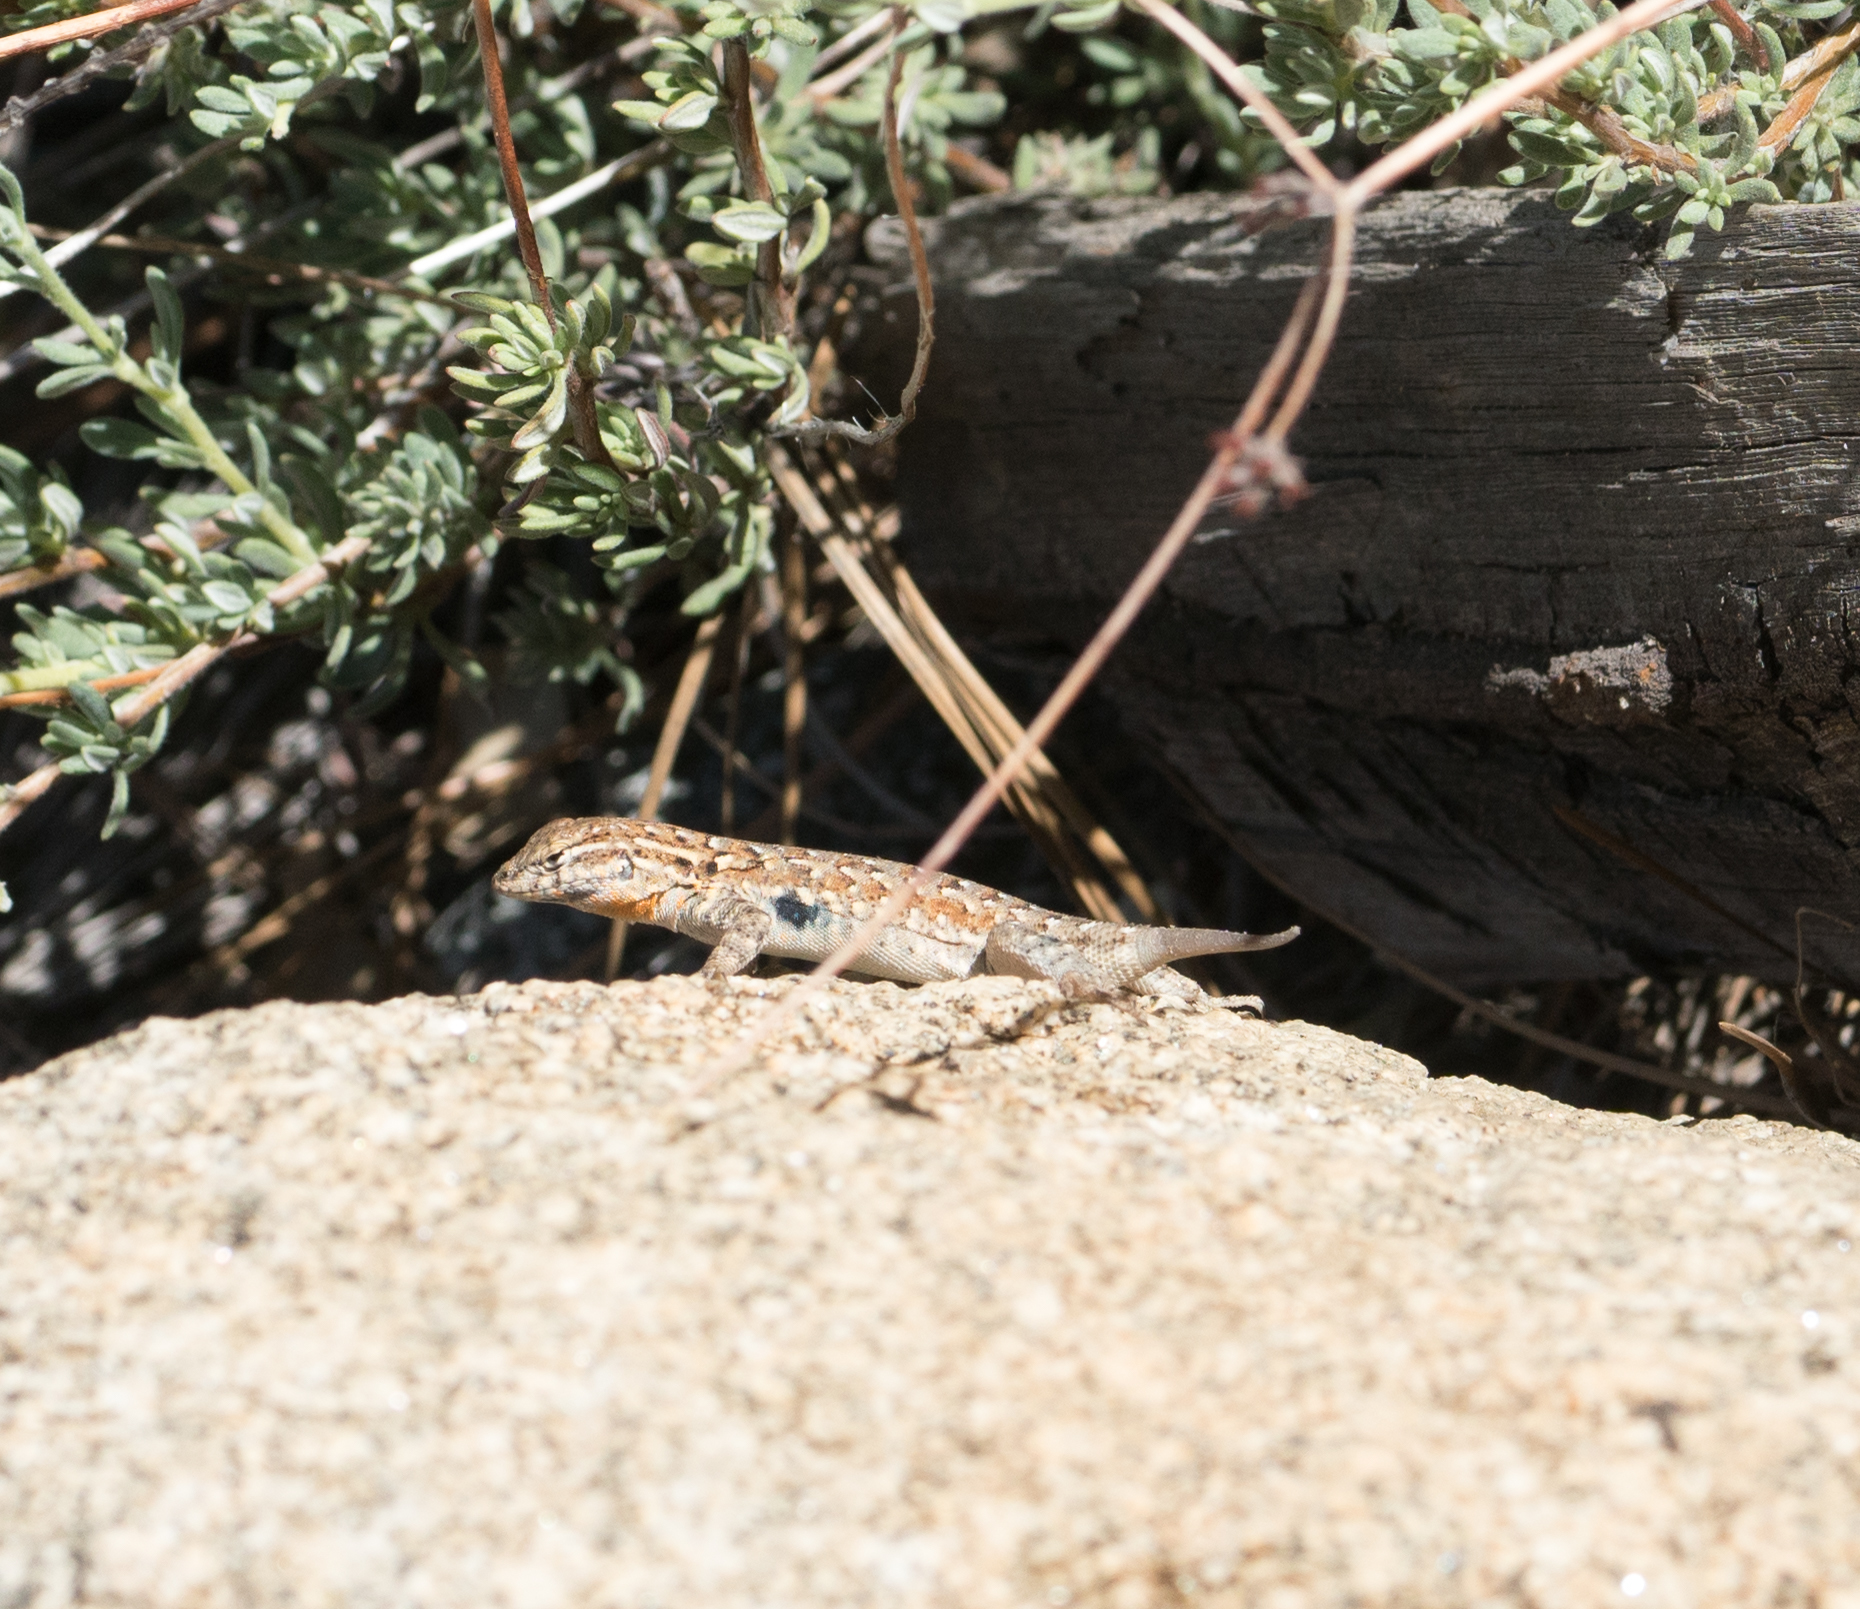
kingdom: Animalia
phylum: Chordata
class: Squamata
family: Phrynosomatidae
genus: Uta
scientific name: Uta stansburiana
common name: Side-blotched lizard
